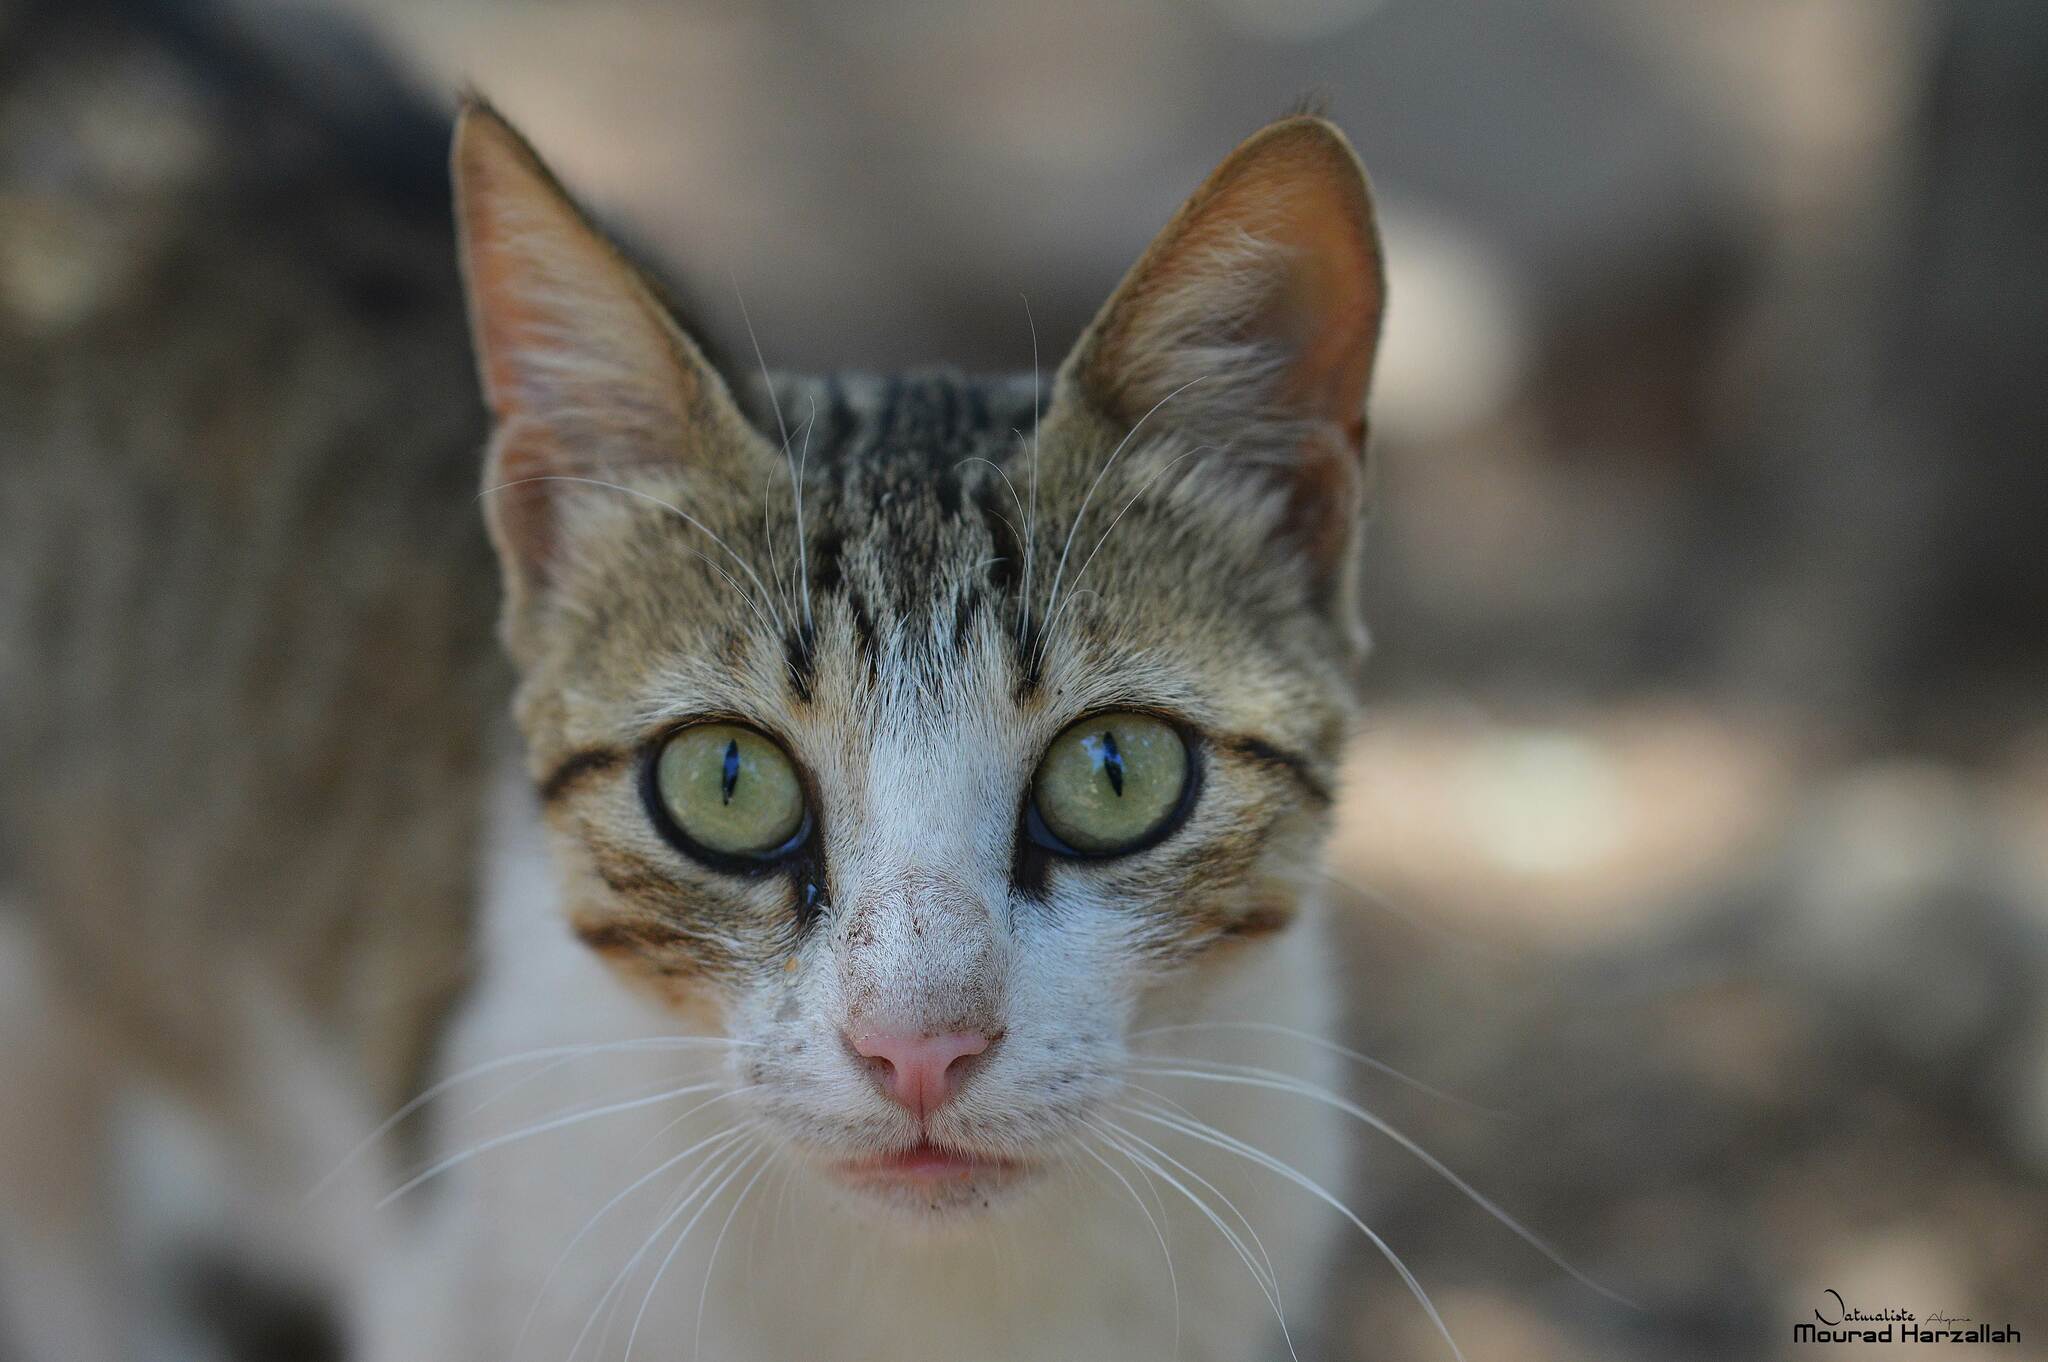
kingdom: Animalia
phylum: Chordata
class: Mammalia
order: Carnivora
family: Felidae
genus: Felis
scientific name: Felis catus
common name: Domestic cat
